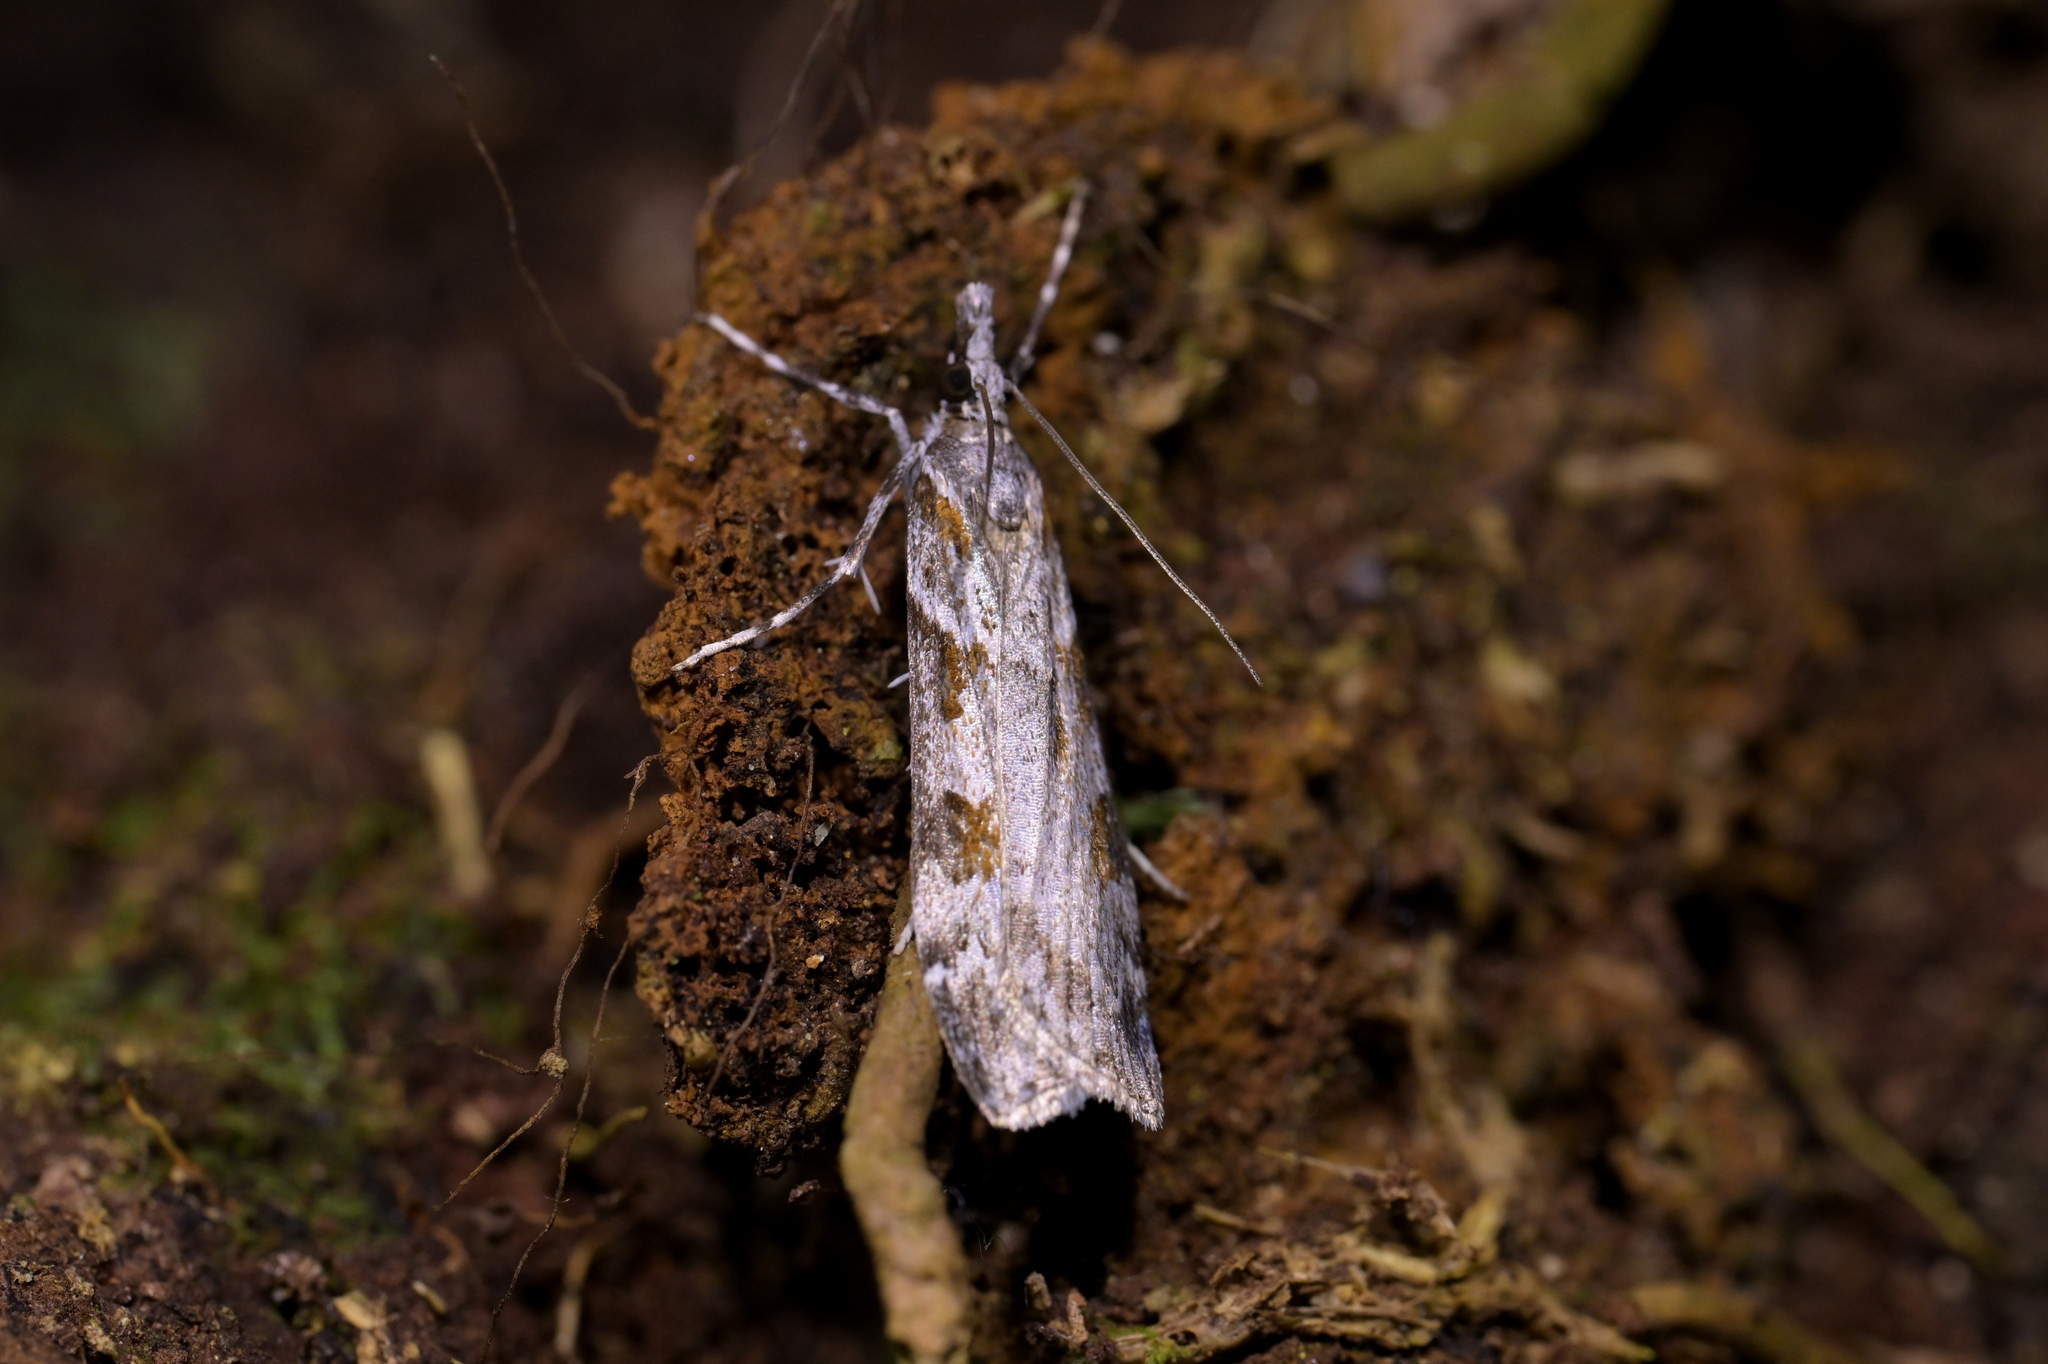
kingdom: Animalia
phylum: Arthropoda
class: Insecta
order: Lepidoptera
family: Crambidae
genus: Scoparia
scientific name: Scoparia petrina
